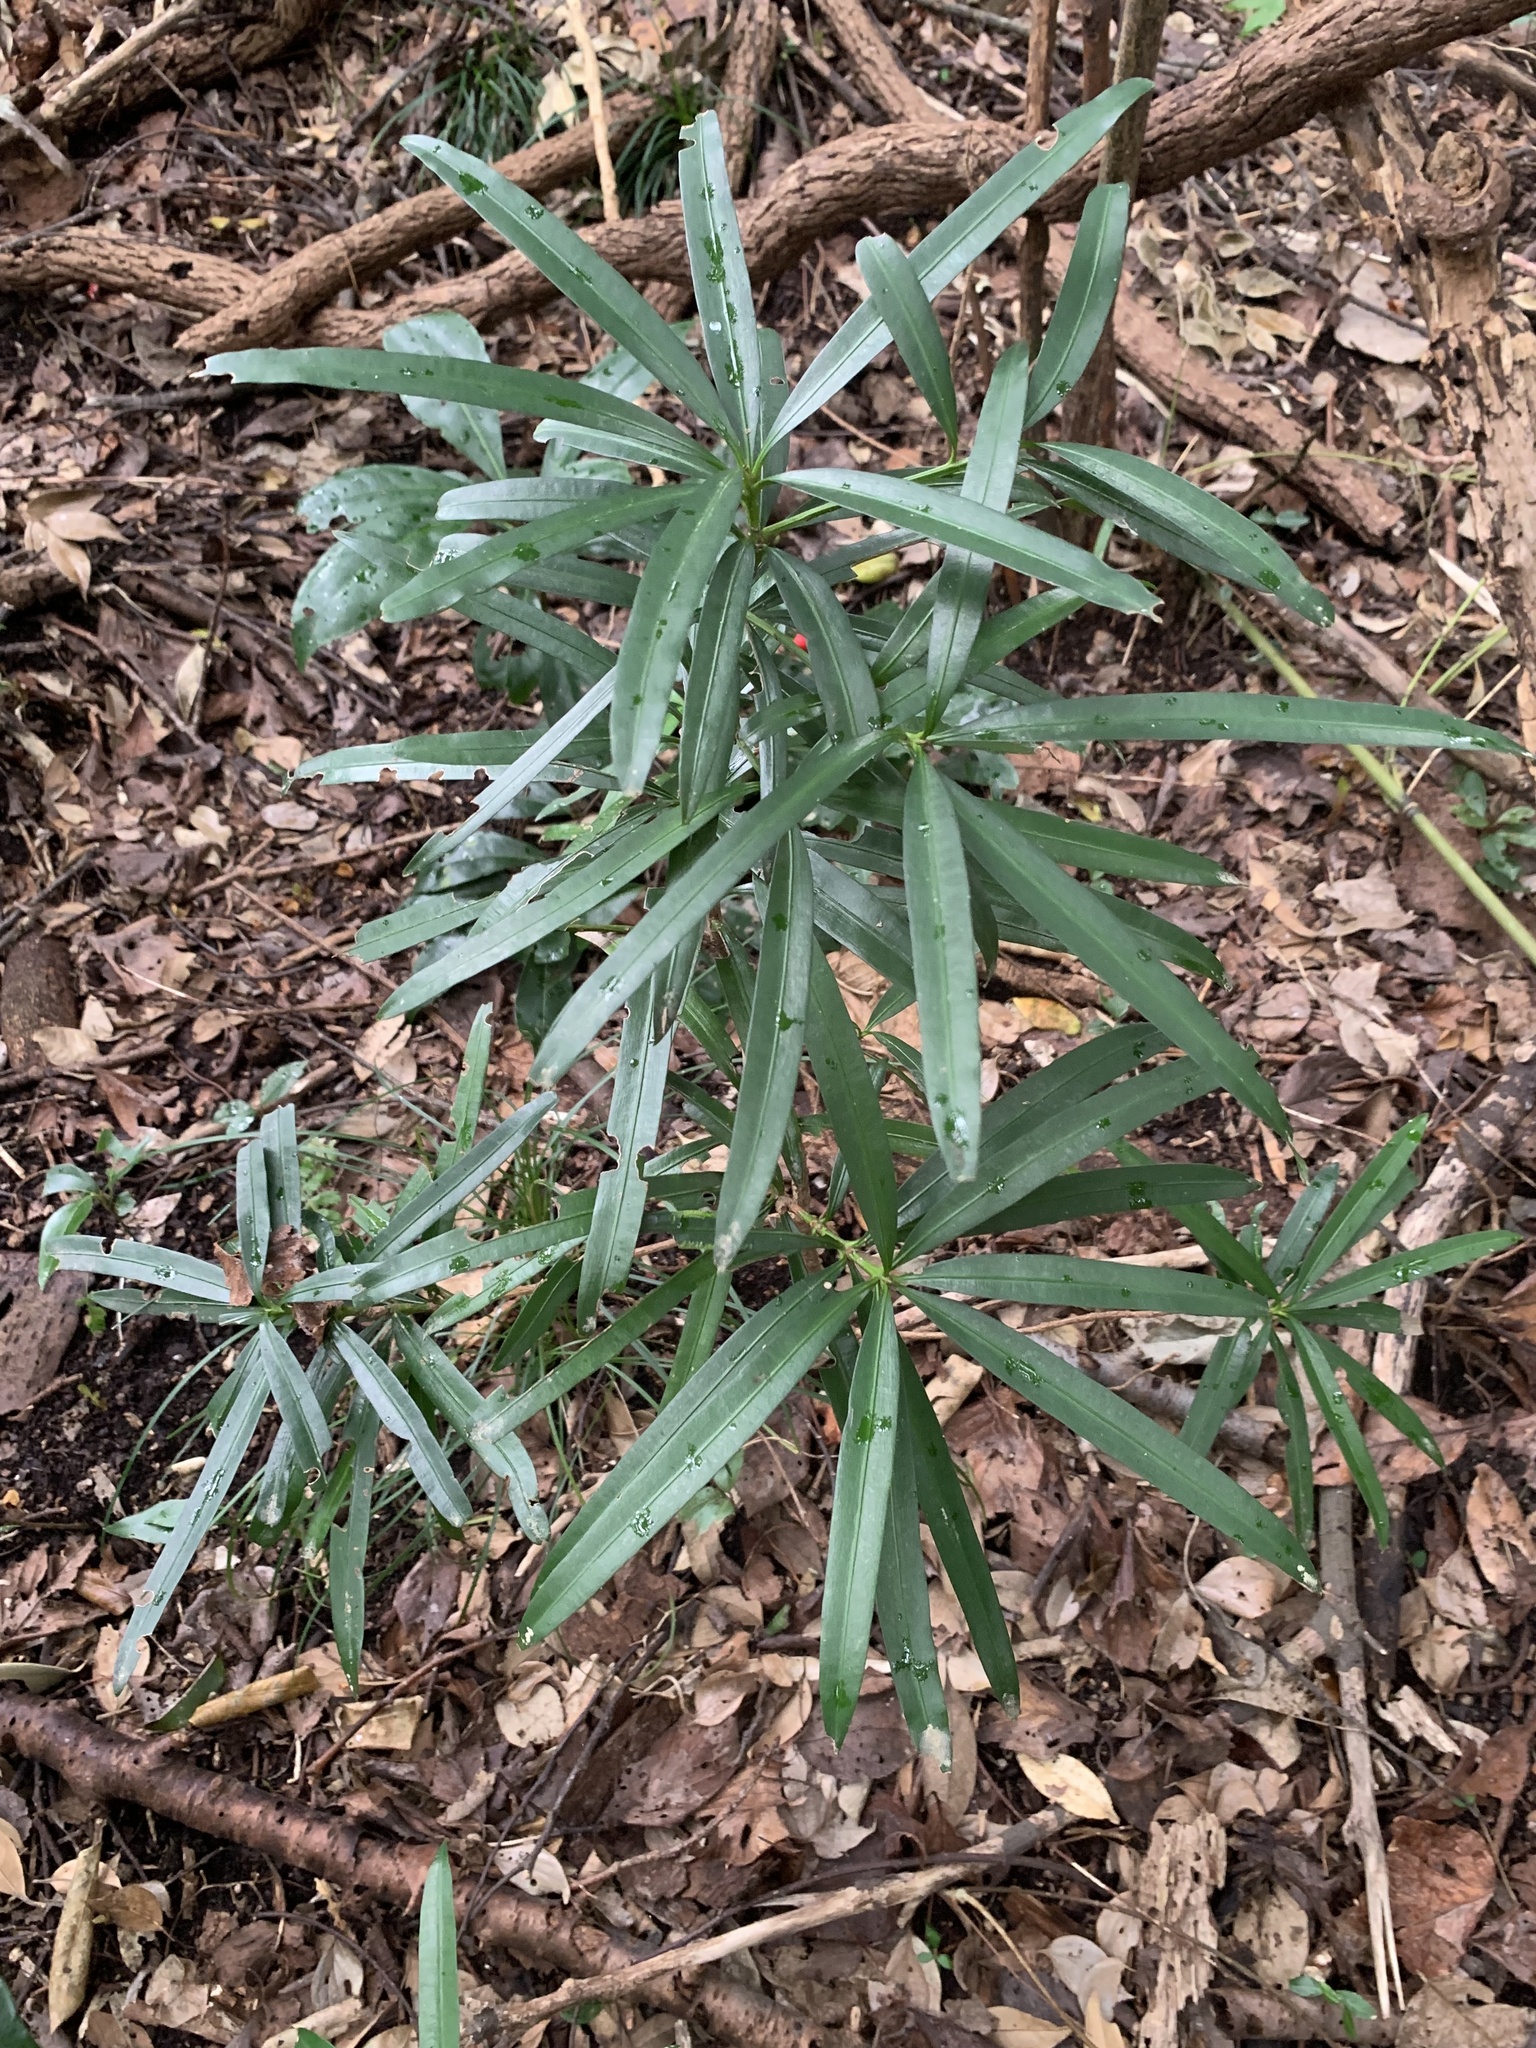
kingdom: Plantae
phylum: Tracheophyta
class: Pinopsida
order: Pinales
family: Podocarpaceae
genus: Podocarpus
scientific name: Podocarpus macrophyllus
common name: Japanese yew
